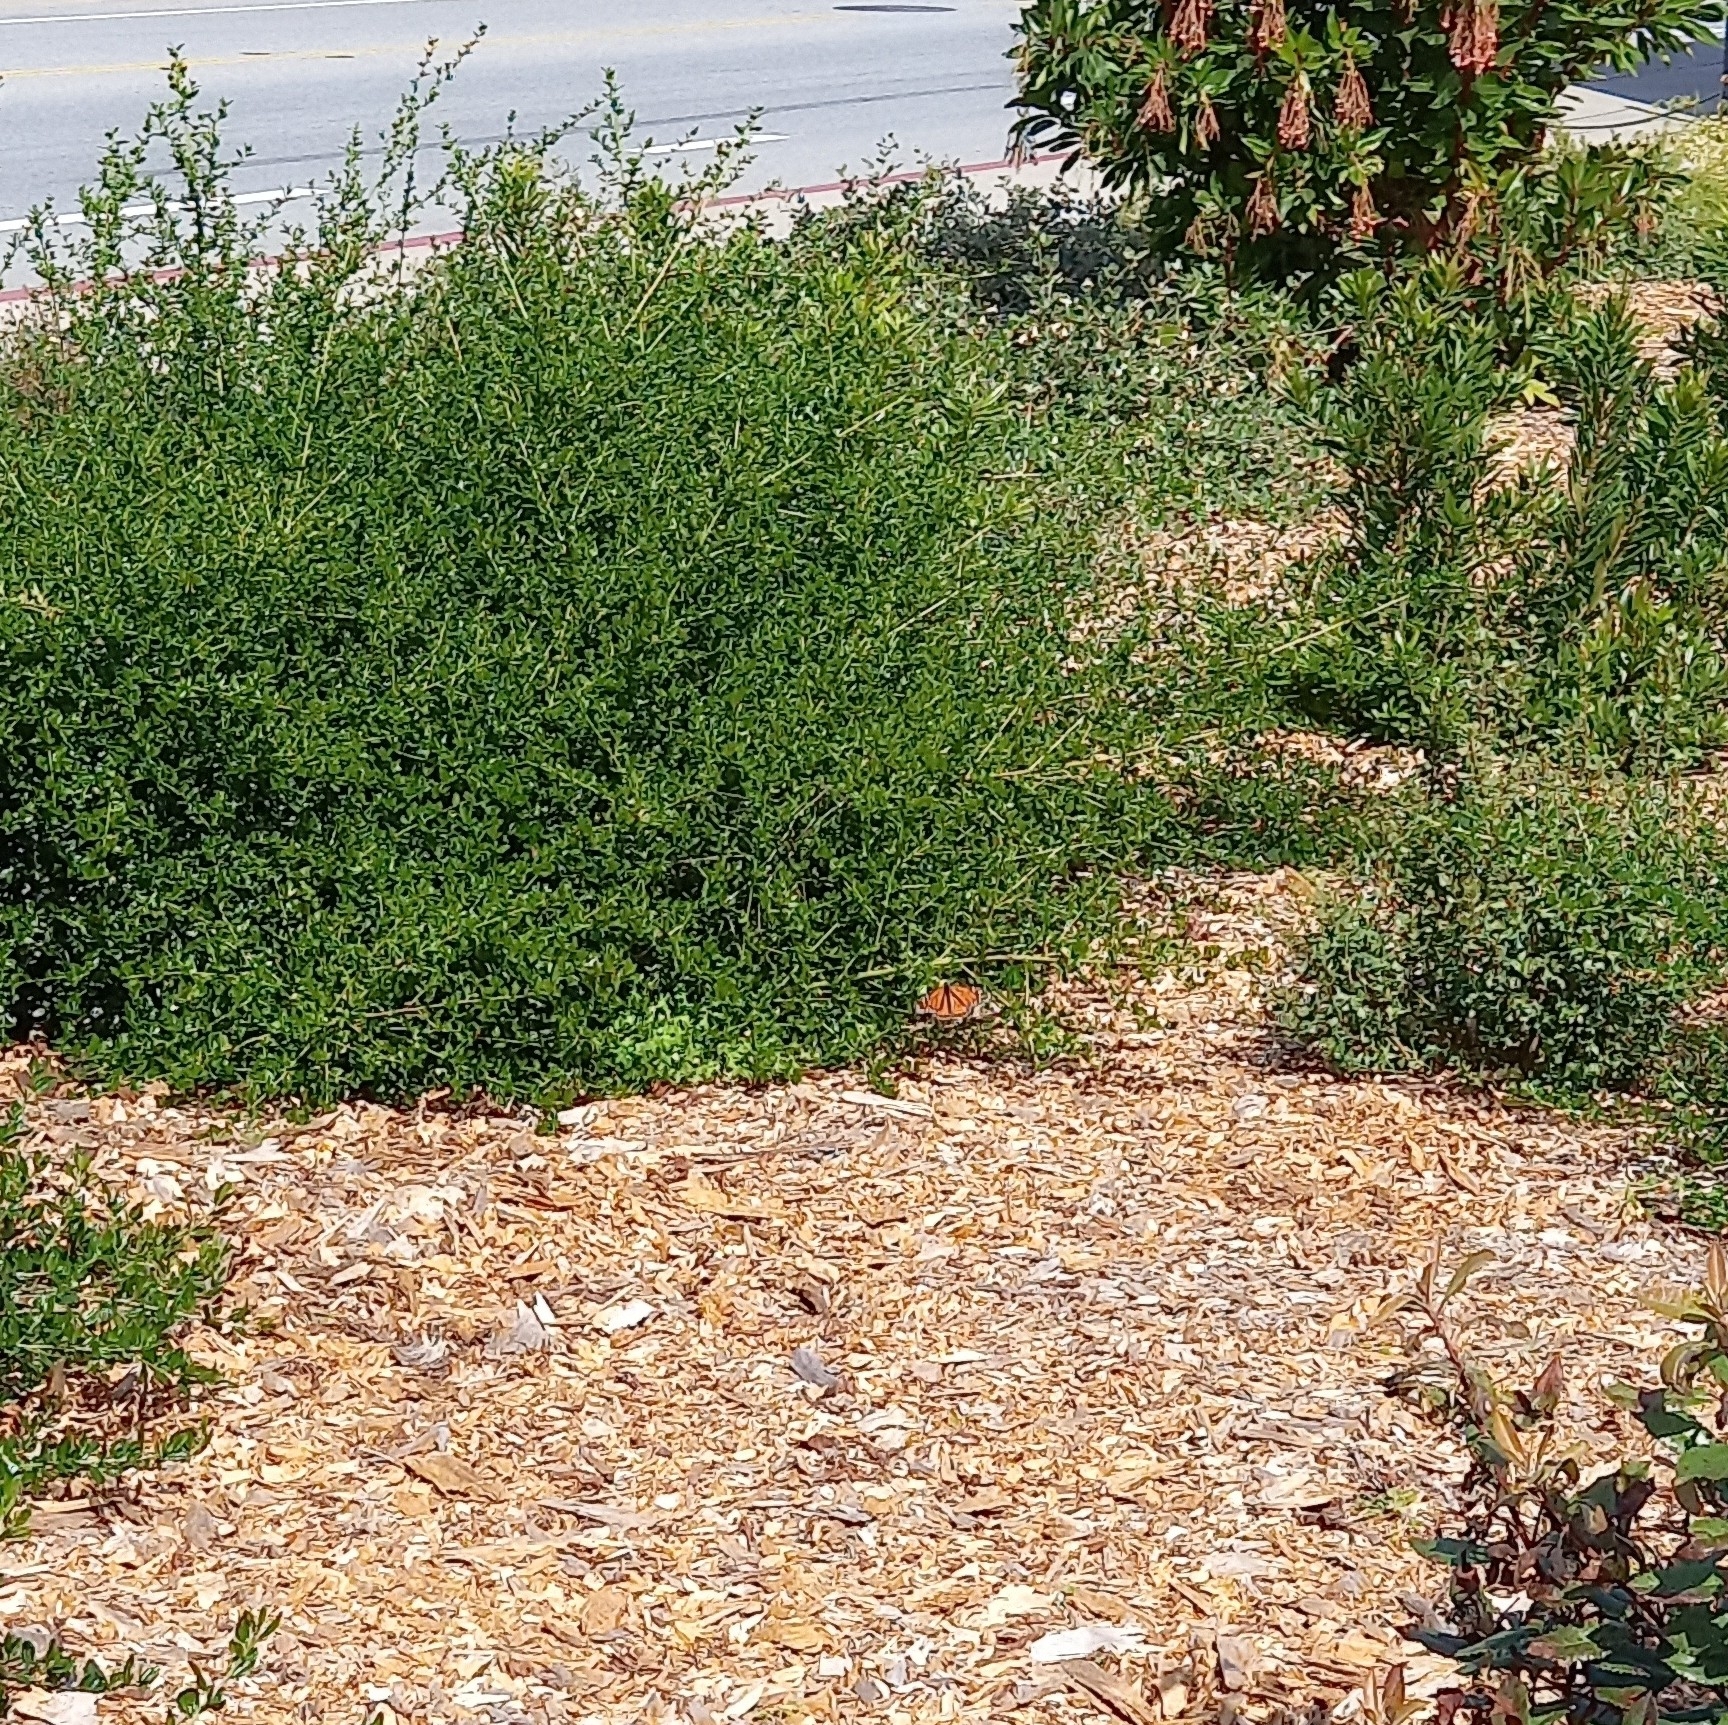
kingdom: Animalia
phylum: Arthropoda
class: Insecta
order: Lepidoptera
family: Nymphalidae
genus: Danaus
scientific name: Danaus plexippus
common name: Monarch
